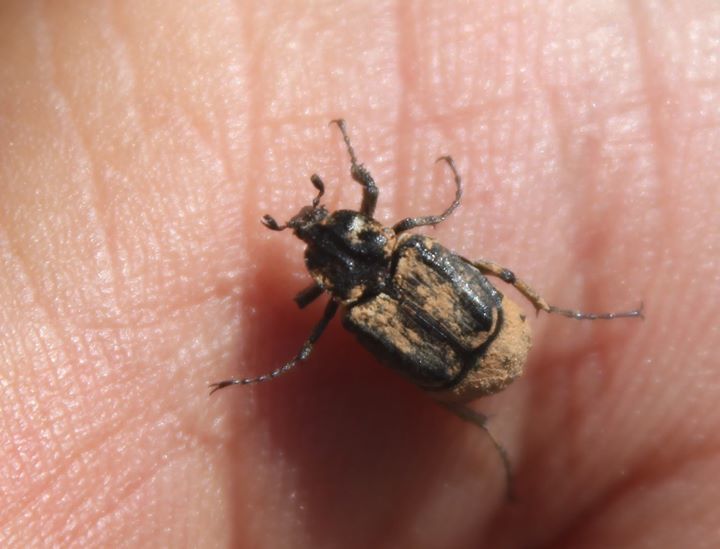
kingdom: Animalia
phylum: Arthropoda
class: Insecta
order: Coleoptera
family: Scarabaeidae
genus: Valgus
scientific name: Valgus hemipterus
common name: Bug flower chafer
